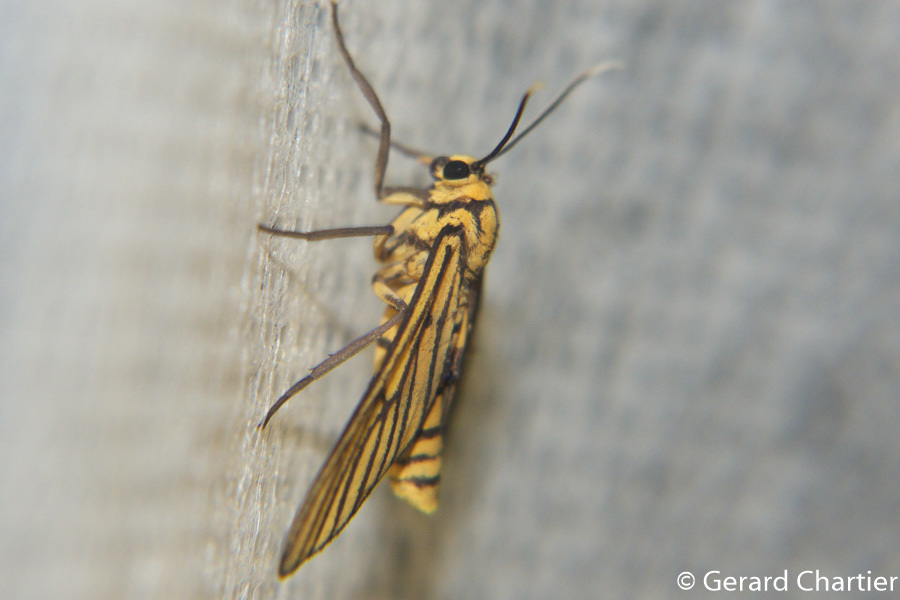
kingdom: Animalia
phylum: Arthropoda
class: Insecta
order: Lepidoptera
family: Erebidae
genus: Amata
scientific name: Amata tigrina
